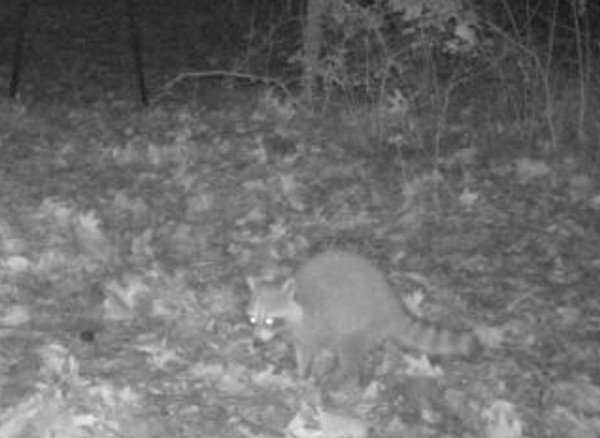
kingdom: Animalia
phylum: Chordata
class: Mammalia
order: Carnivora
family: Procyonidae
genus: Procyon
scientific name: Procyon lotor
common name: Raccoon
